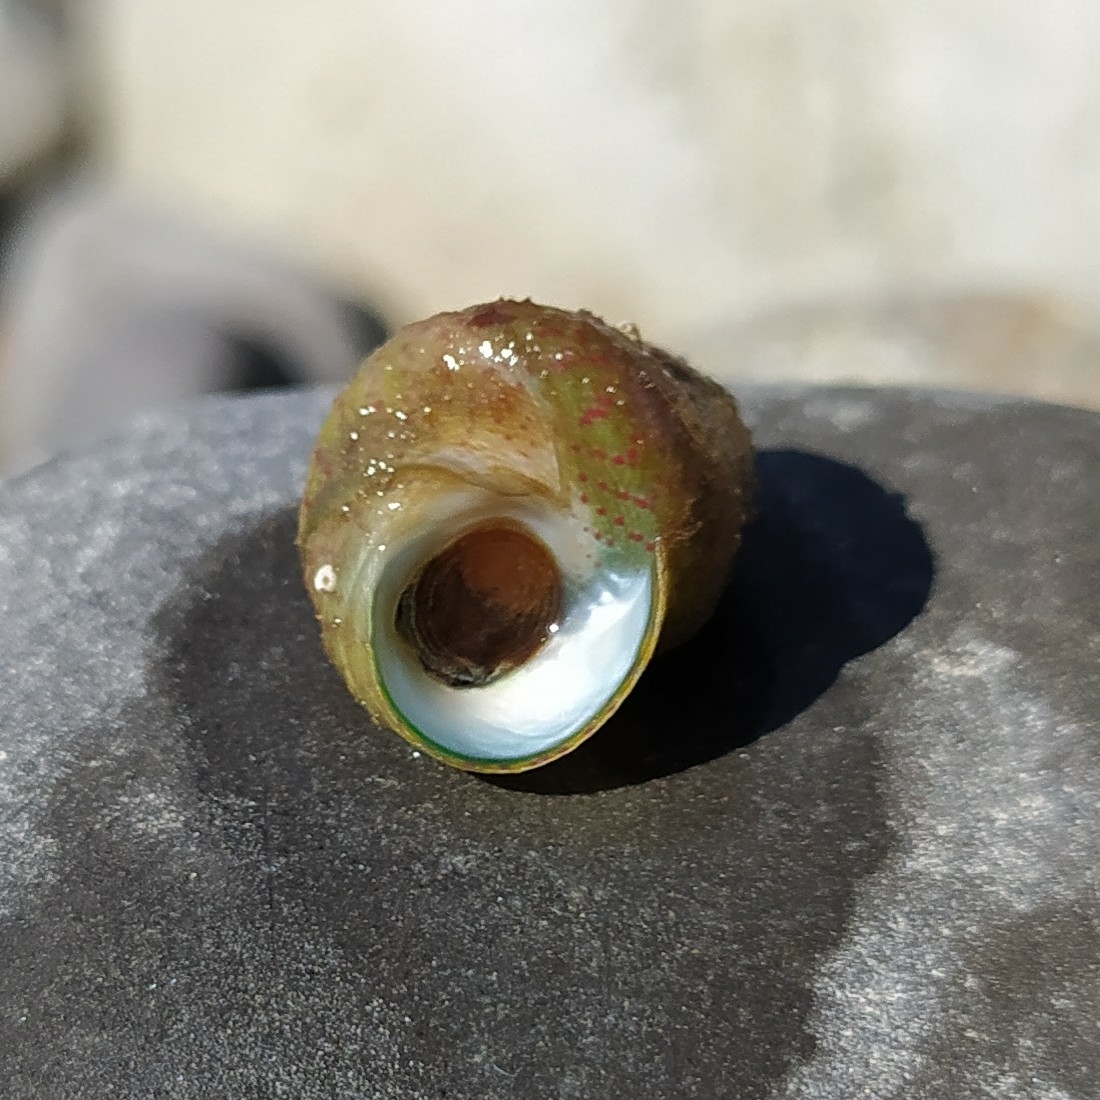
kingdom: Animalia
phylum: Mollusca
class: Gastropoda
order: Trochida
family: Trochidae
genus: Steromphala
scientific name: Steromphala divaricata
